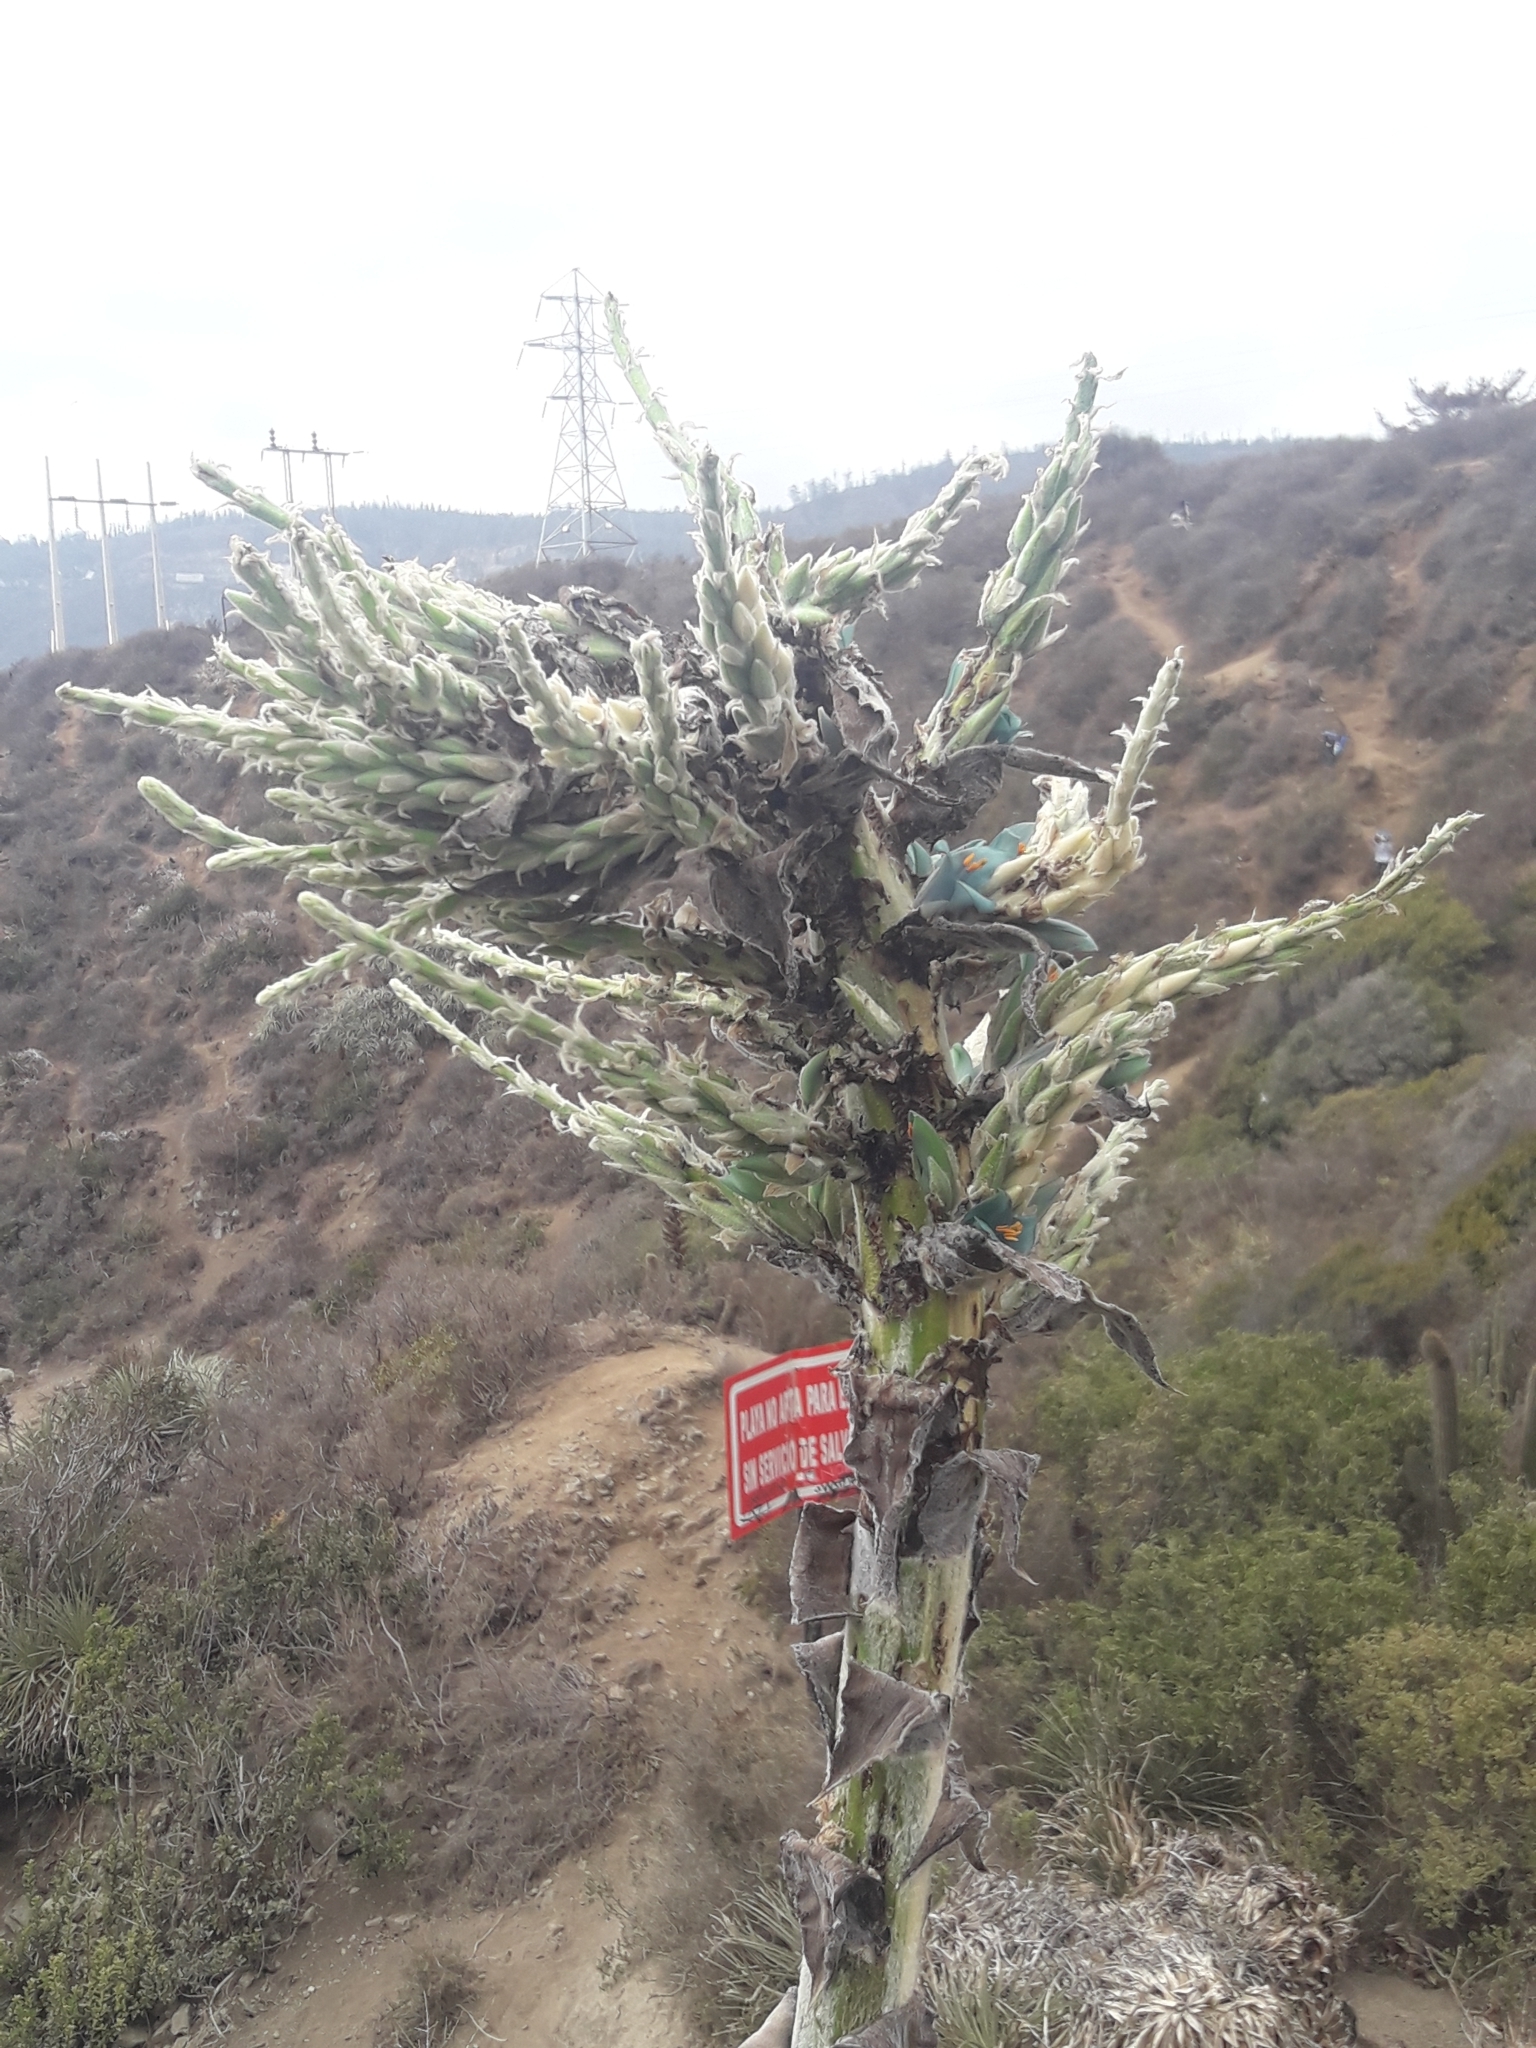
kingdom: Plantae
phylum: Tracheophyta
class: Liliopsida
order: Poales
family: Bromeliaceae
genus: Puya
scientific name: Puya alpestris
